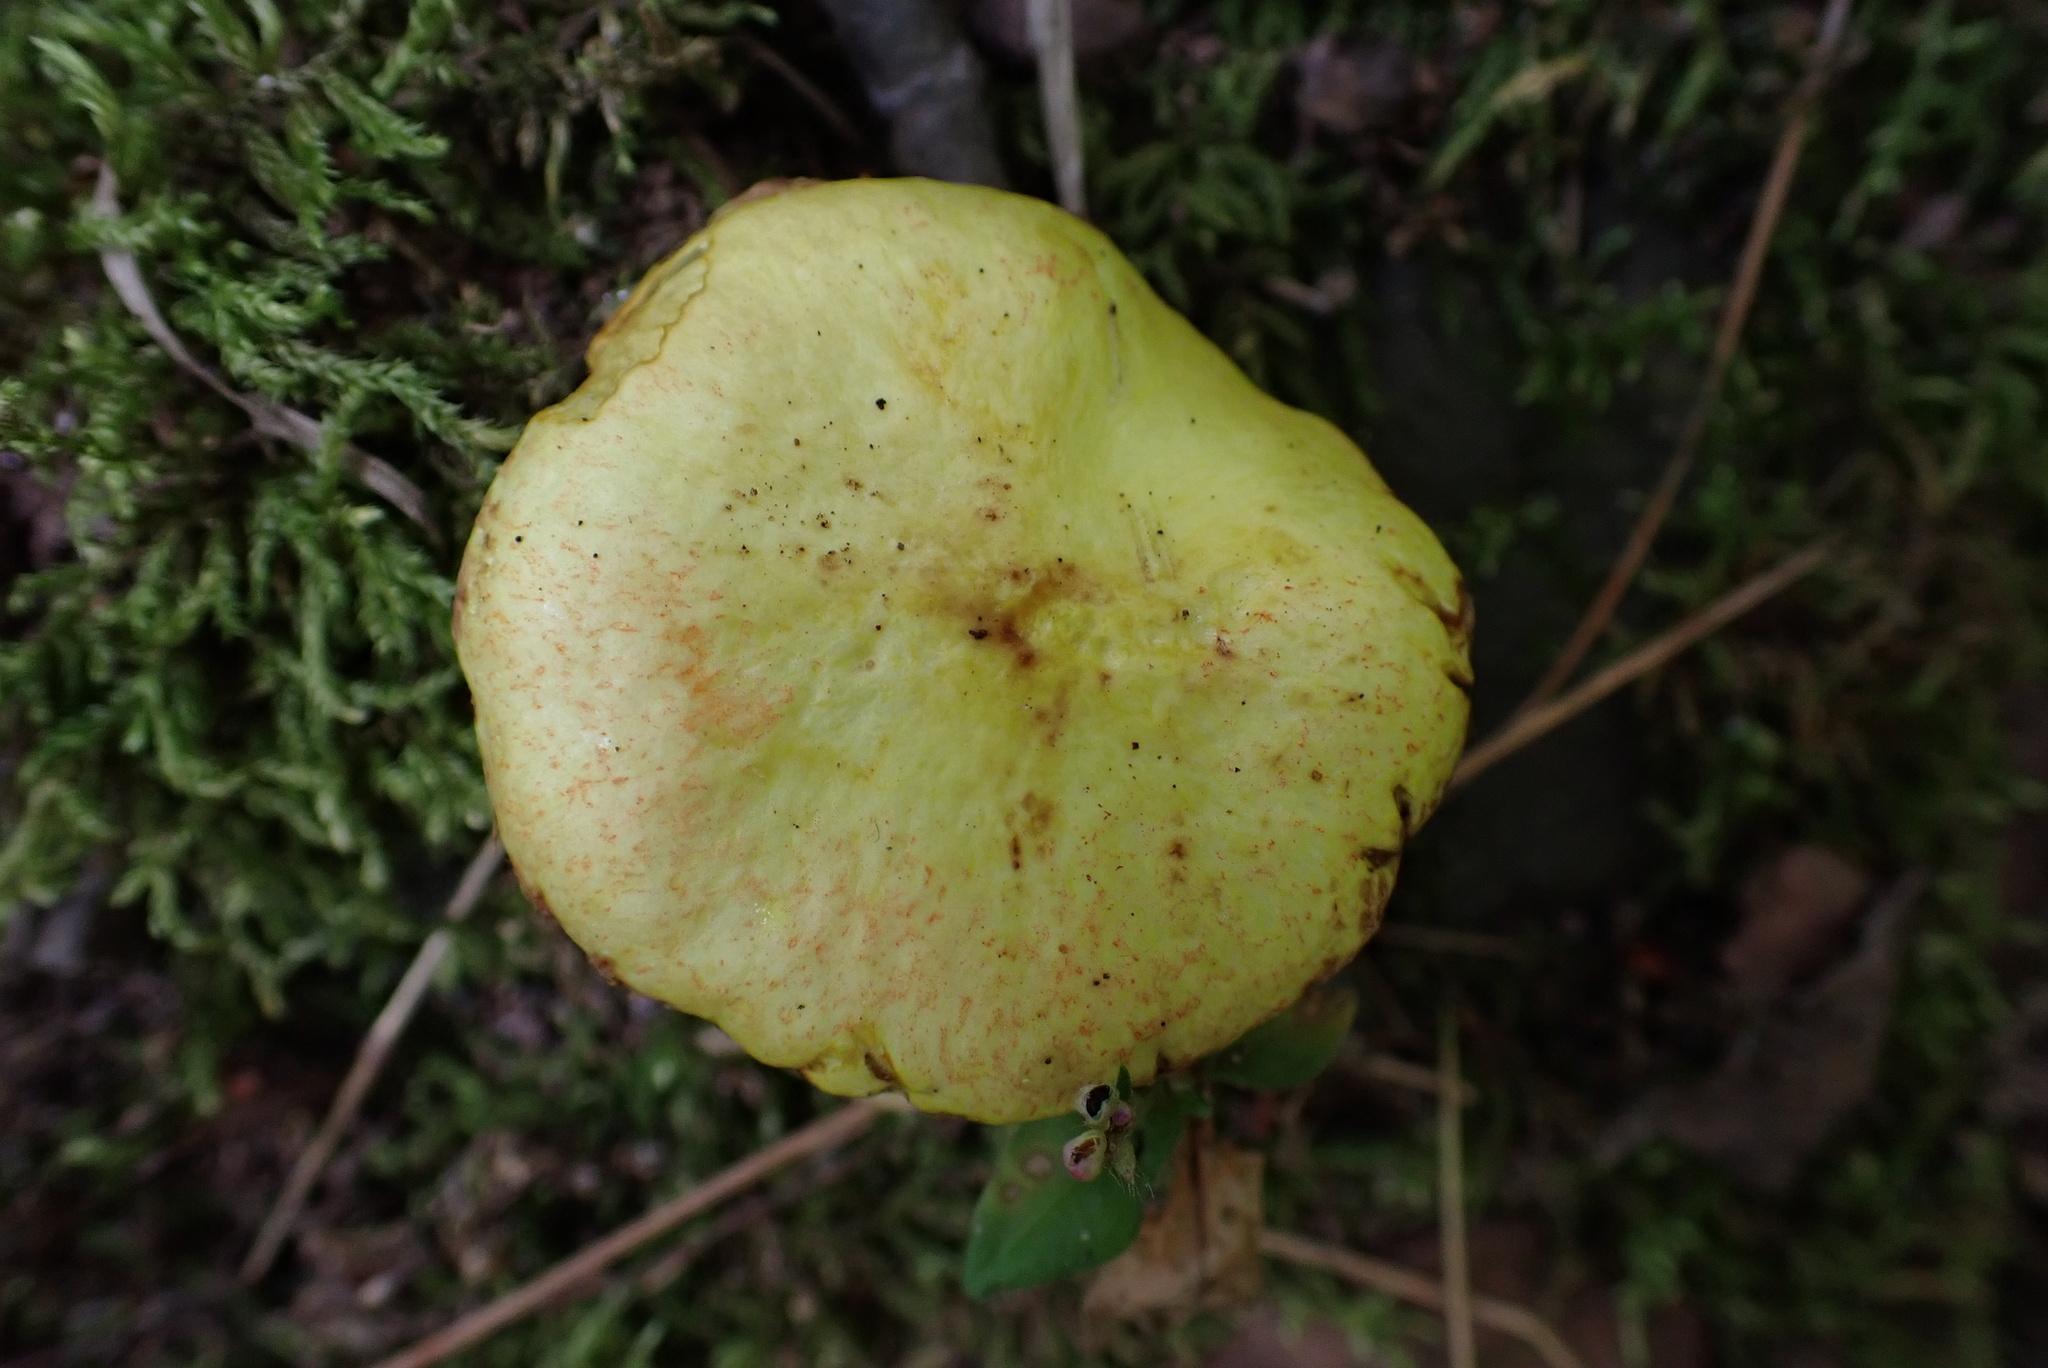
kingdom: Fungi
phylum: Basidiomycota
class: Agaricomycetes
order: Boletales
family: Suillaceae
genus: Suillus
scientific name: Suillus americanus
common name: Chicken fat mushroom
